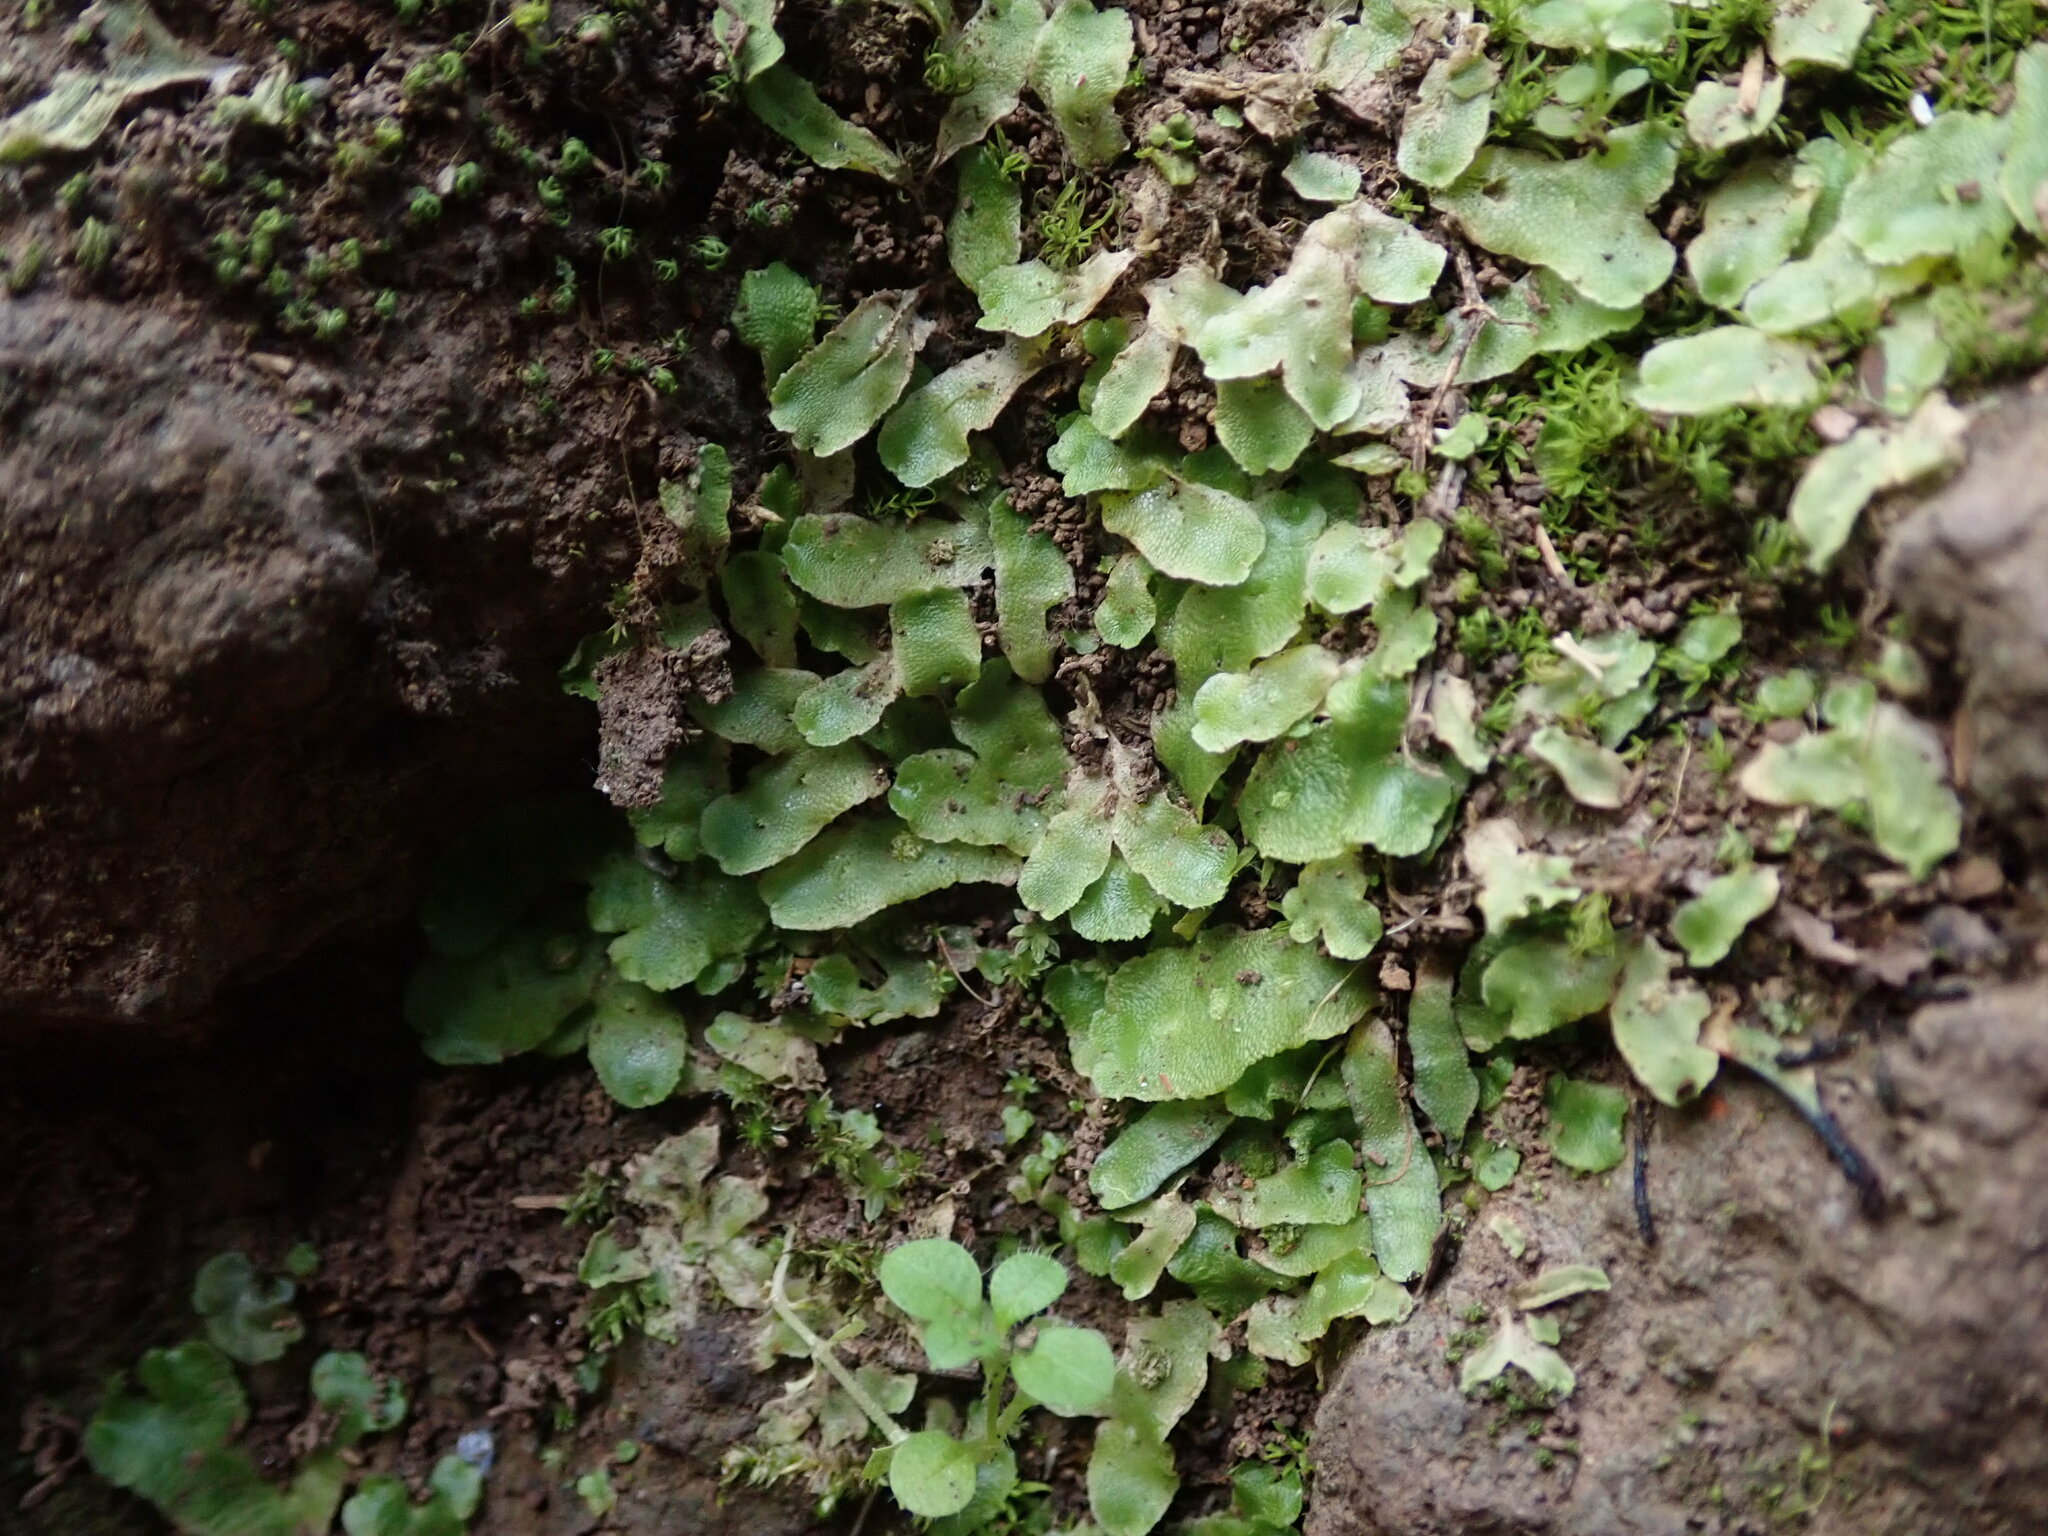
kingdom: Plantae
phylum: Marchantiophyta
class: Marchantiopsida
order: Marchantiales
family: Corsiniaceae
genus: Corsinia
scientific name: Corsinia coriandrina
